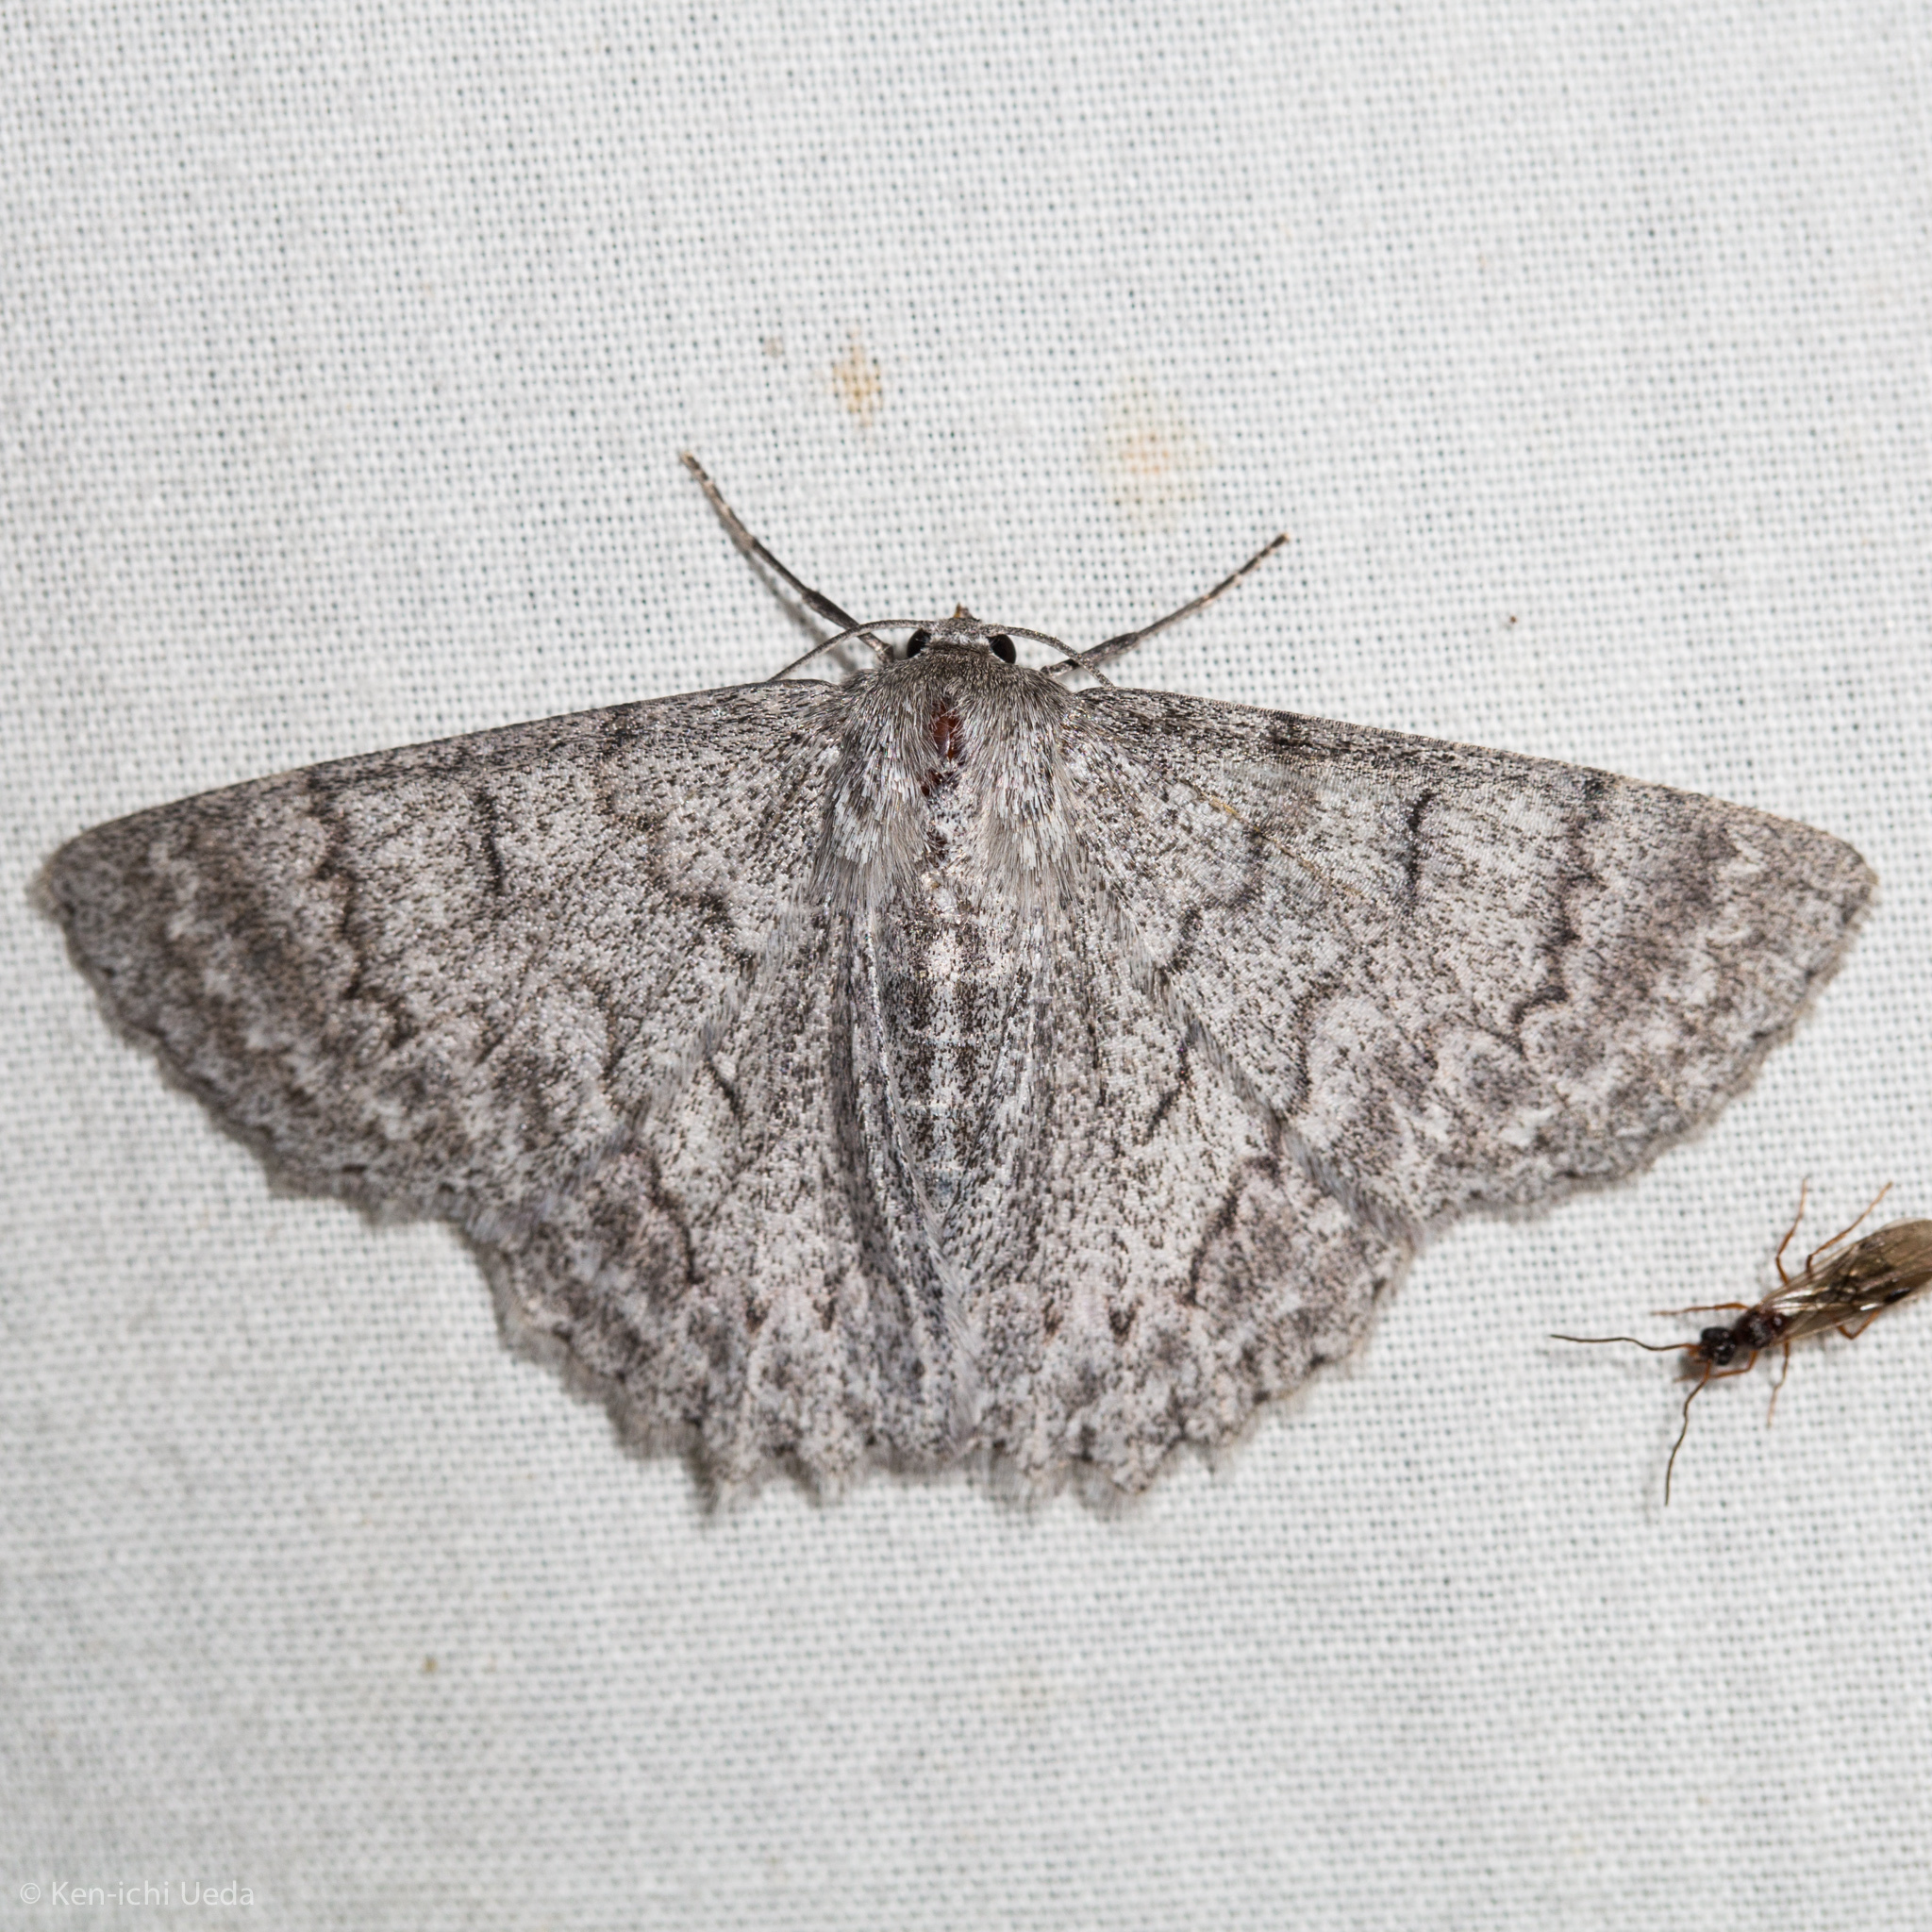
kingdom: Animalia
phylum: Arthropoda
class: Insecta
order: Lepidoptera
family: Geometridae
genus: Crypsiphona
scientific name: Crypsiphona ocultaria
